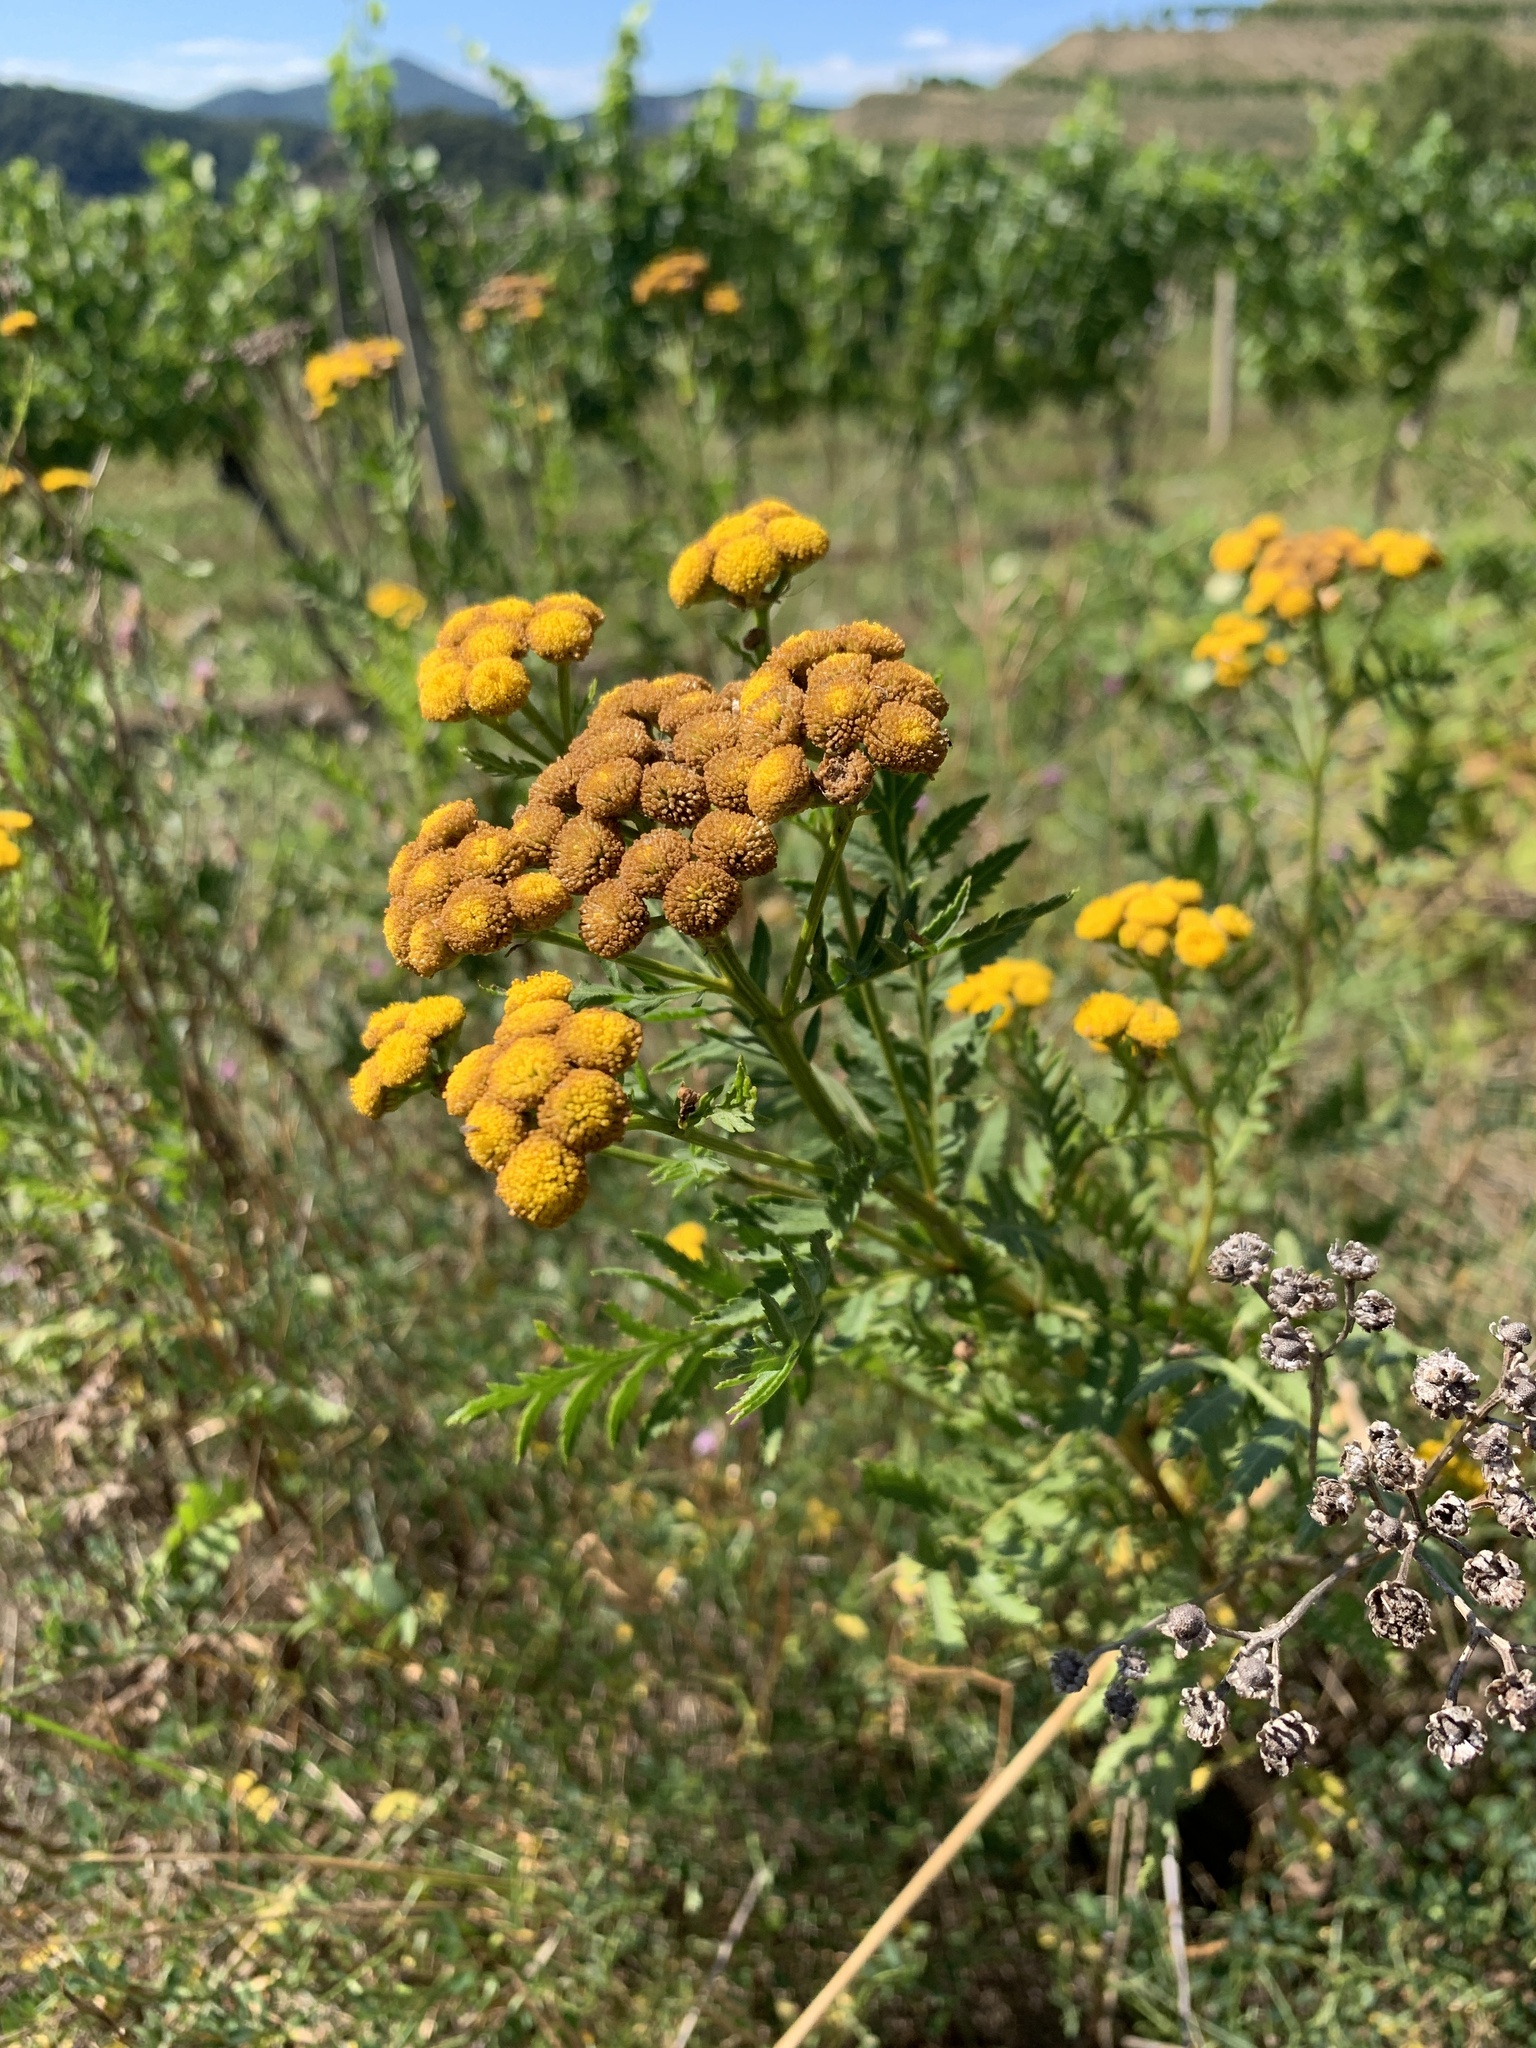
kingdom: Plantae
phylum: Tracheophyta
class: Magnoliopsida
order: Asterales
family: Asteraceae
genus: Tanacetum
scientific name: Tanacetum vulgare
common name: Common tansy
